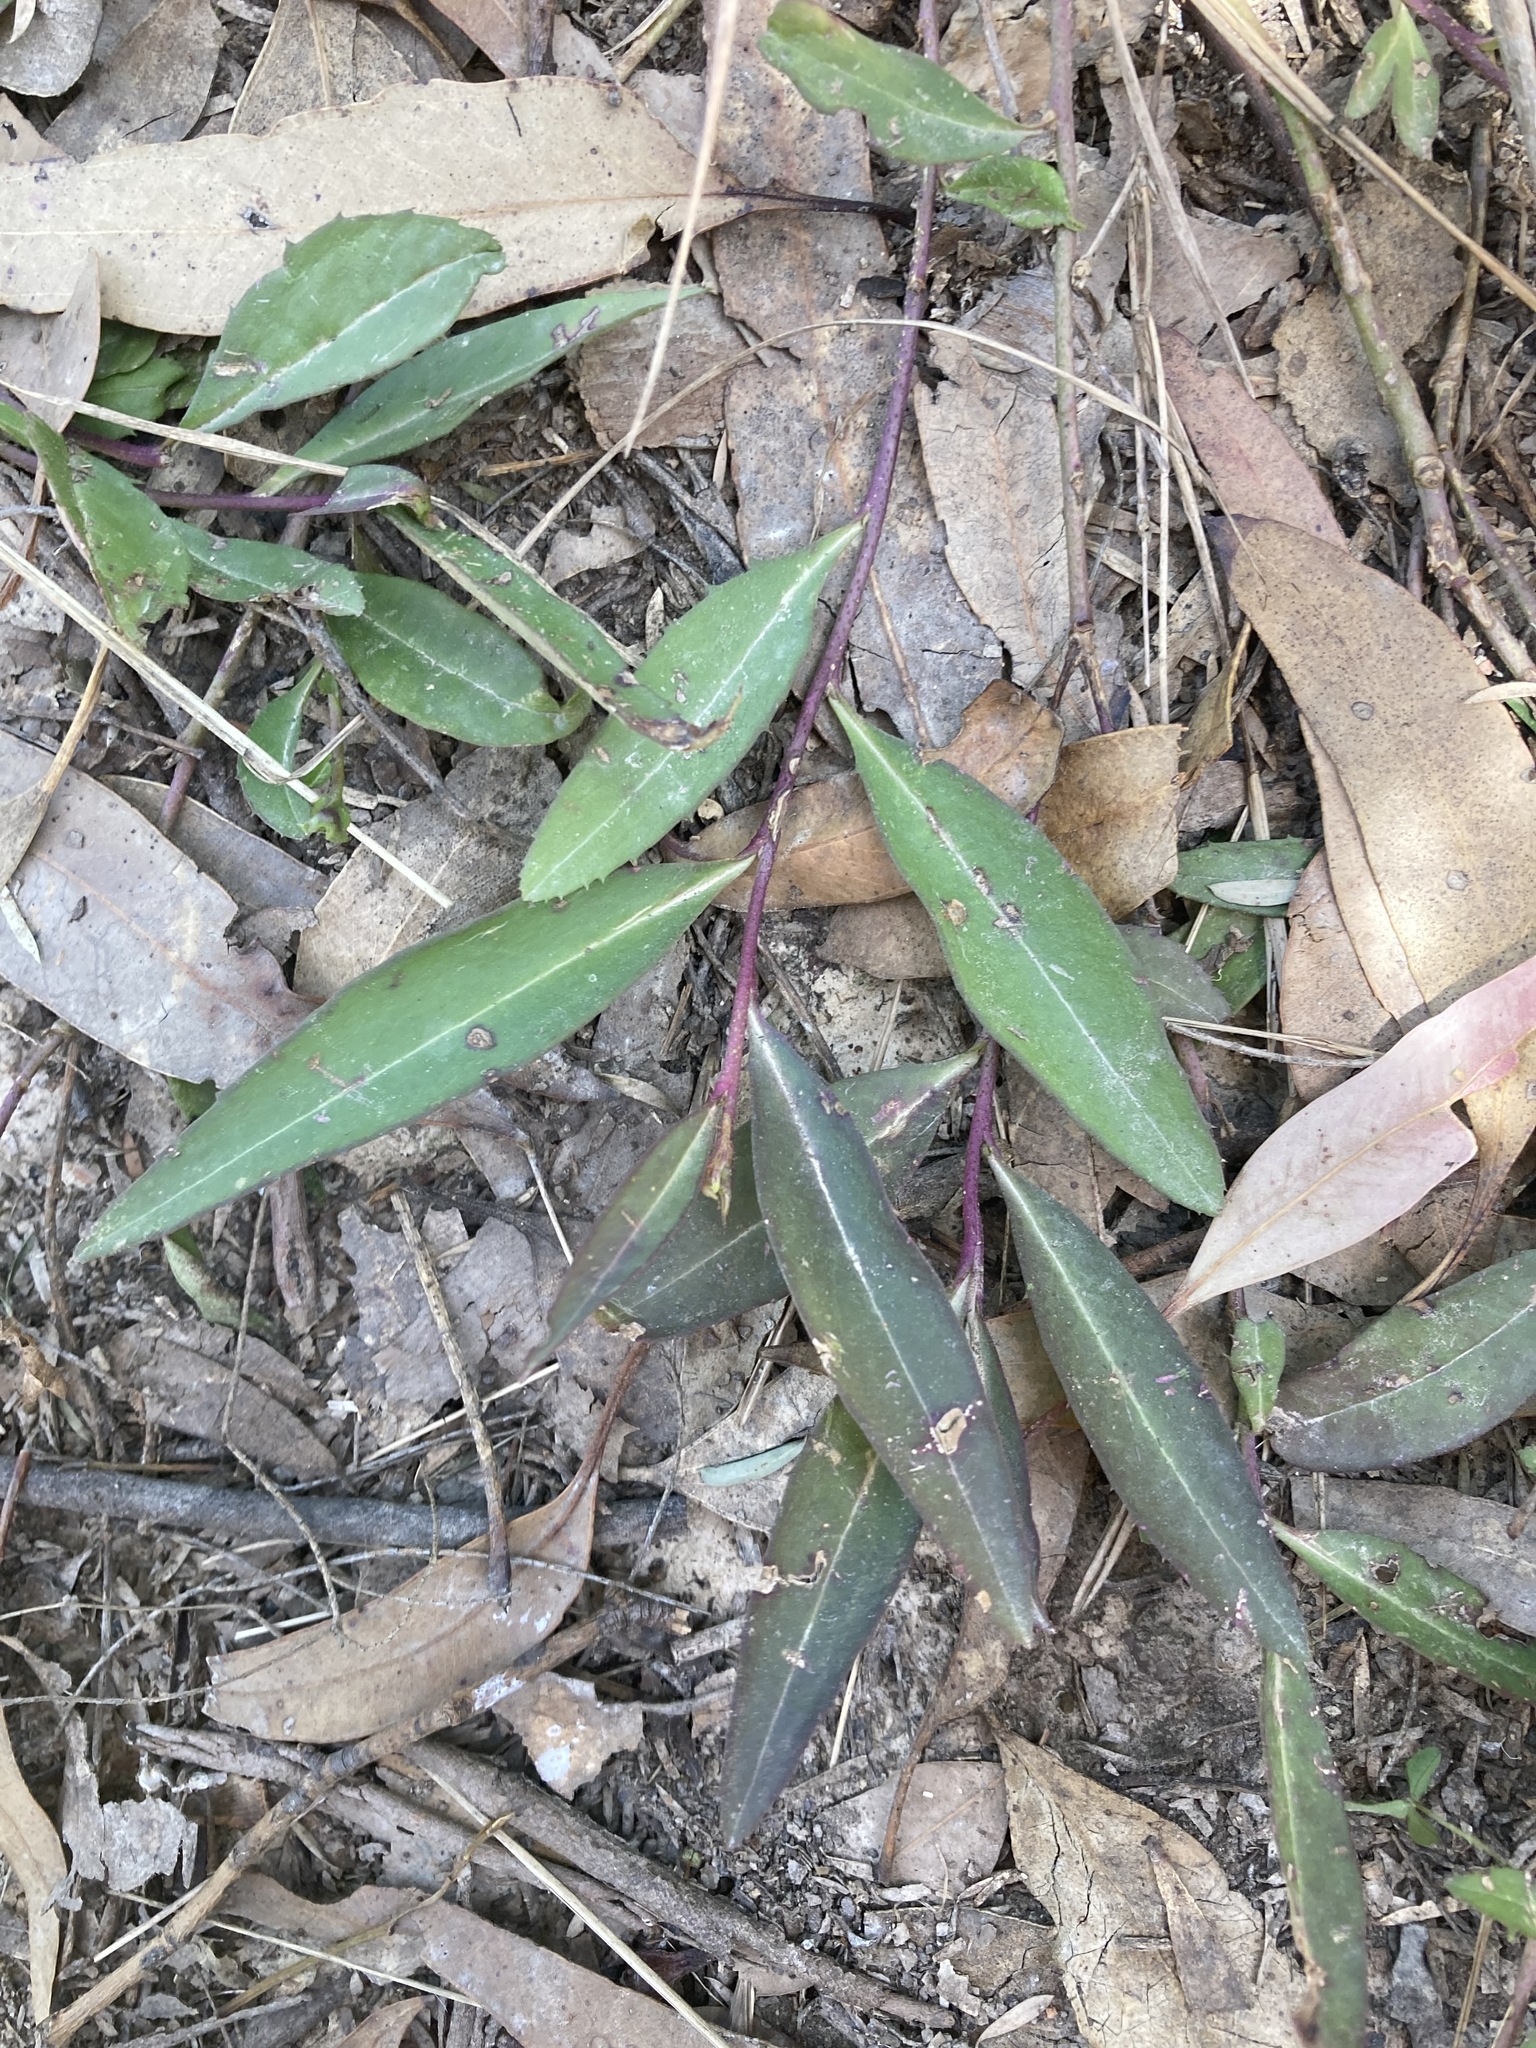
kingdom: Plantae
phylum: Tracheophyta
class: Magnoliopsida
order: Lamiales
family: Scrophulariaceae
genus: Eremophila
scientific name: Eremophila debilis
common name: Winter-apple
